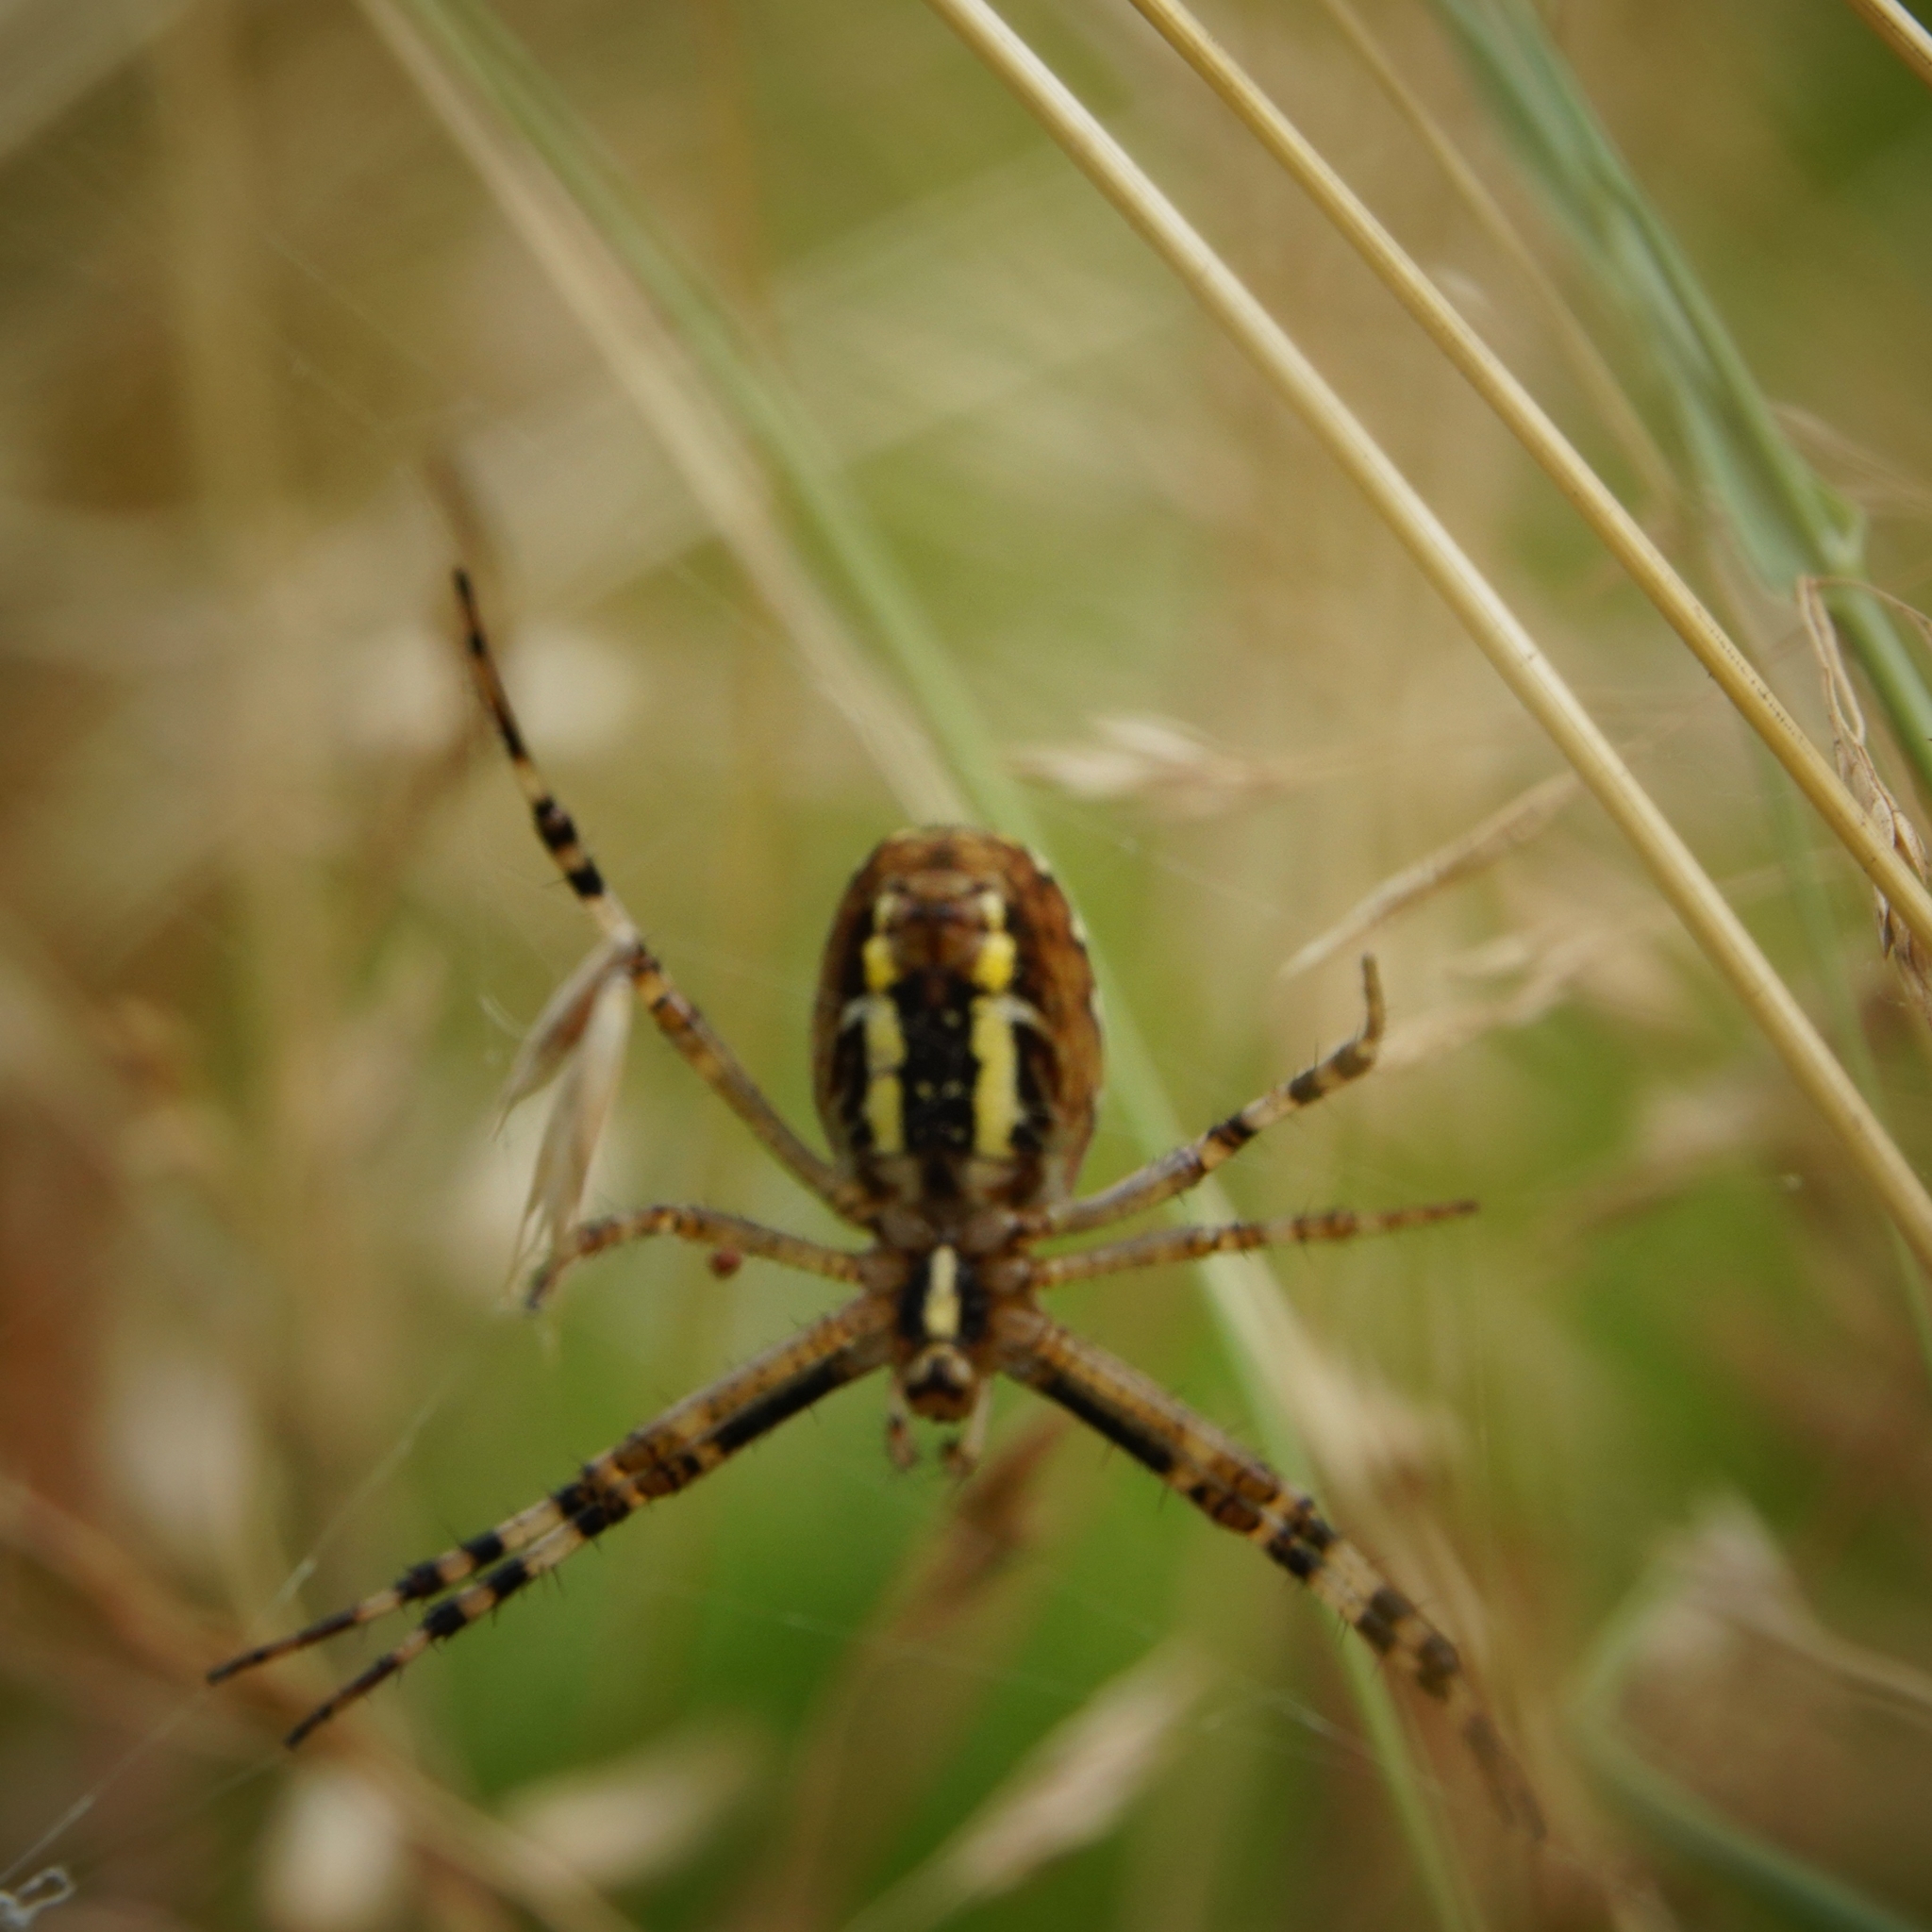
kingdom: Animalia
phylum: Arthropoda
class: Arachnida
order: Araneae
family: Araneidae
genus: Argiope
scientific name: Argiope bruennichi
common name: Wasp spider
